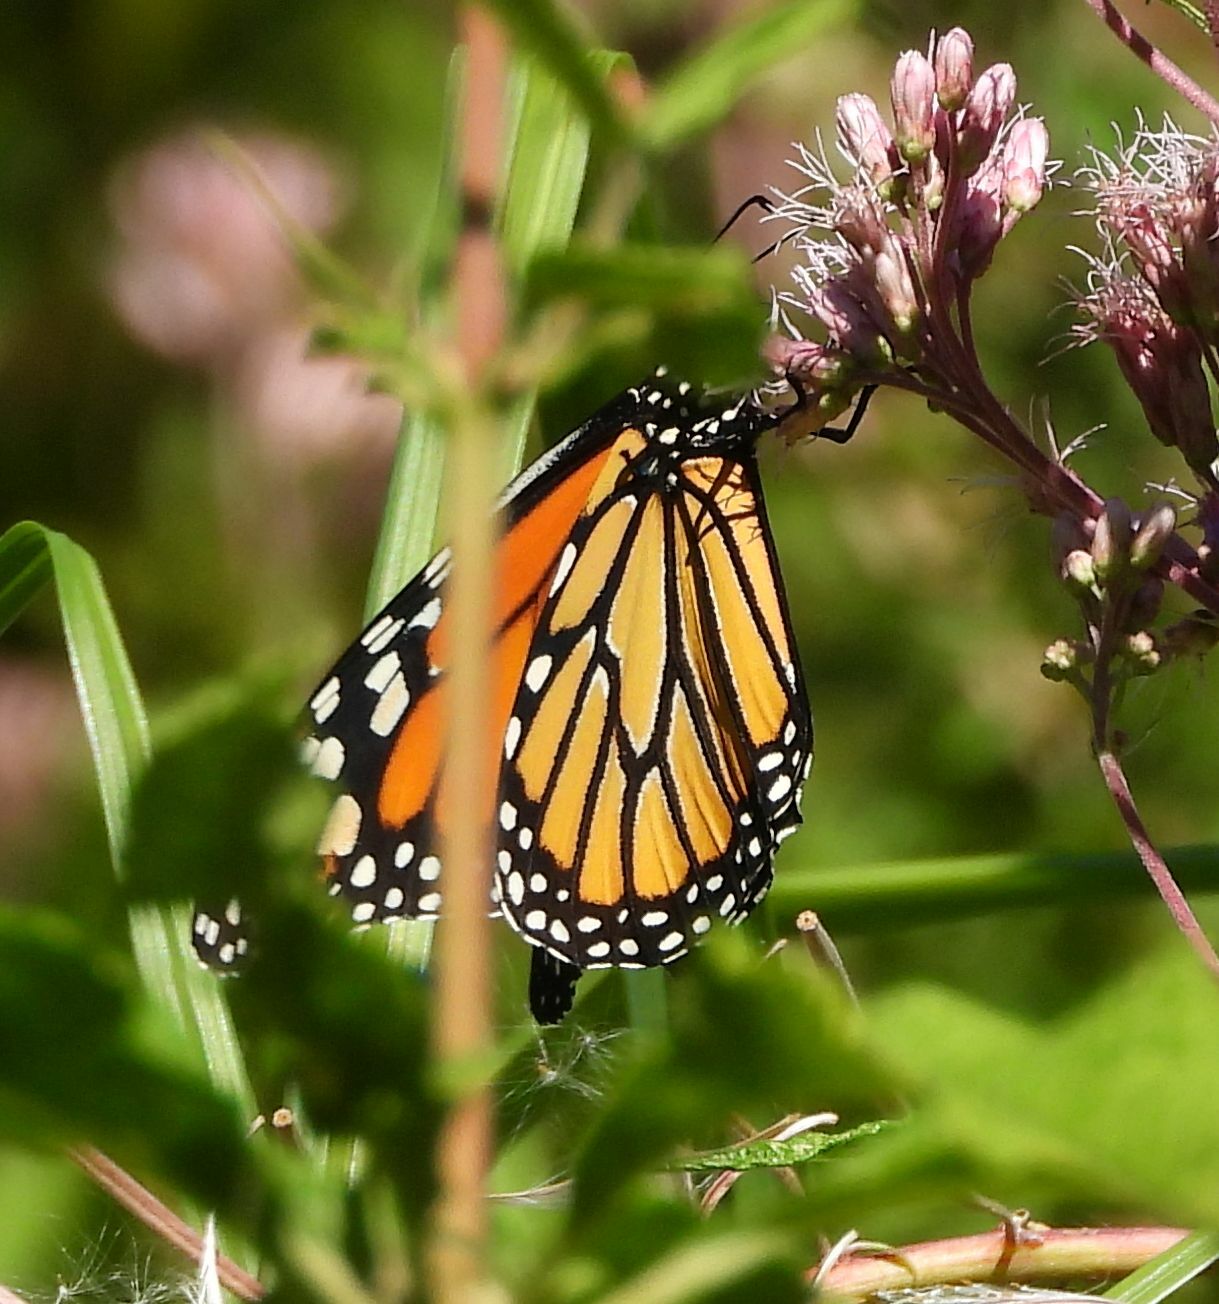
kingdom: Animalia
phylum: Arthropoda
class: Insecta
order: Lepidoptera
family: Nymphalidae
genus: Danaus
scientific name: Danaus plexippus
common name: Monarch
